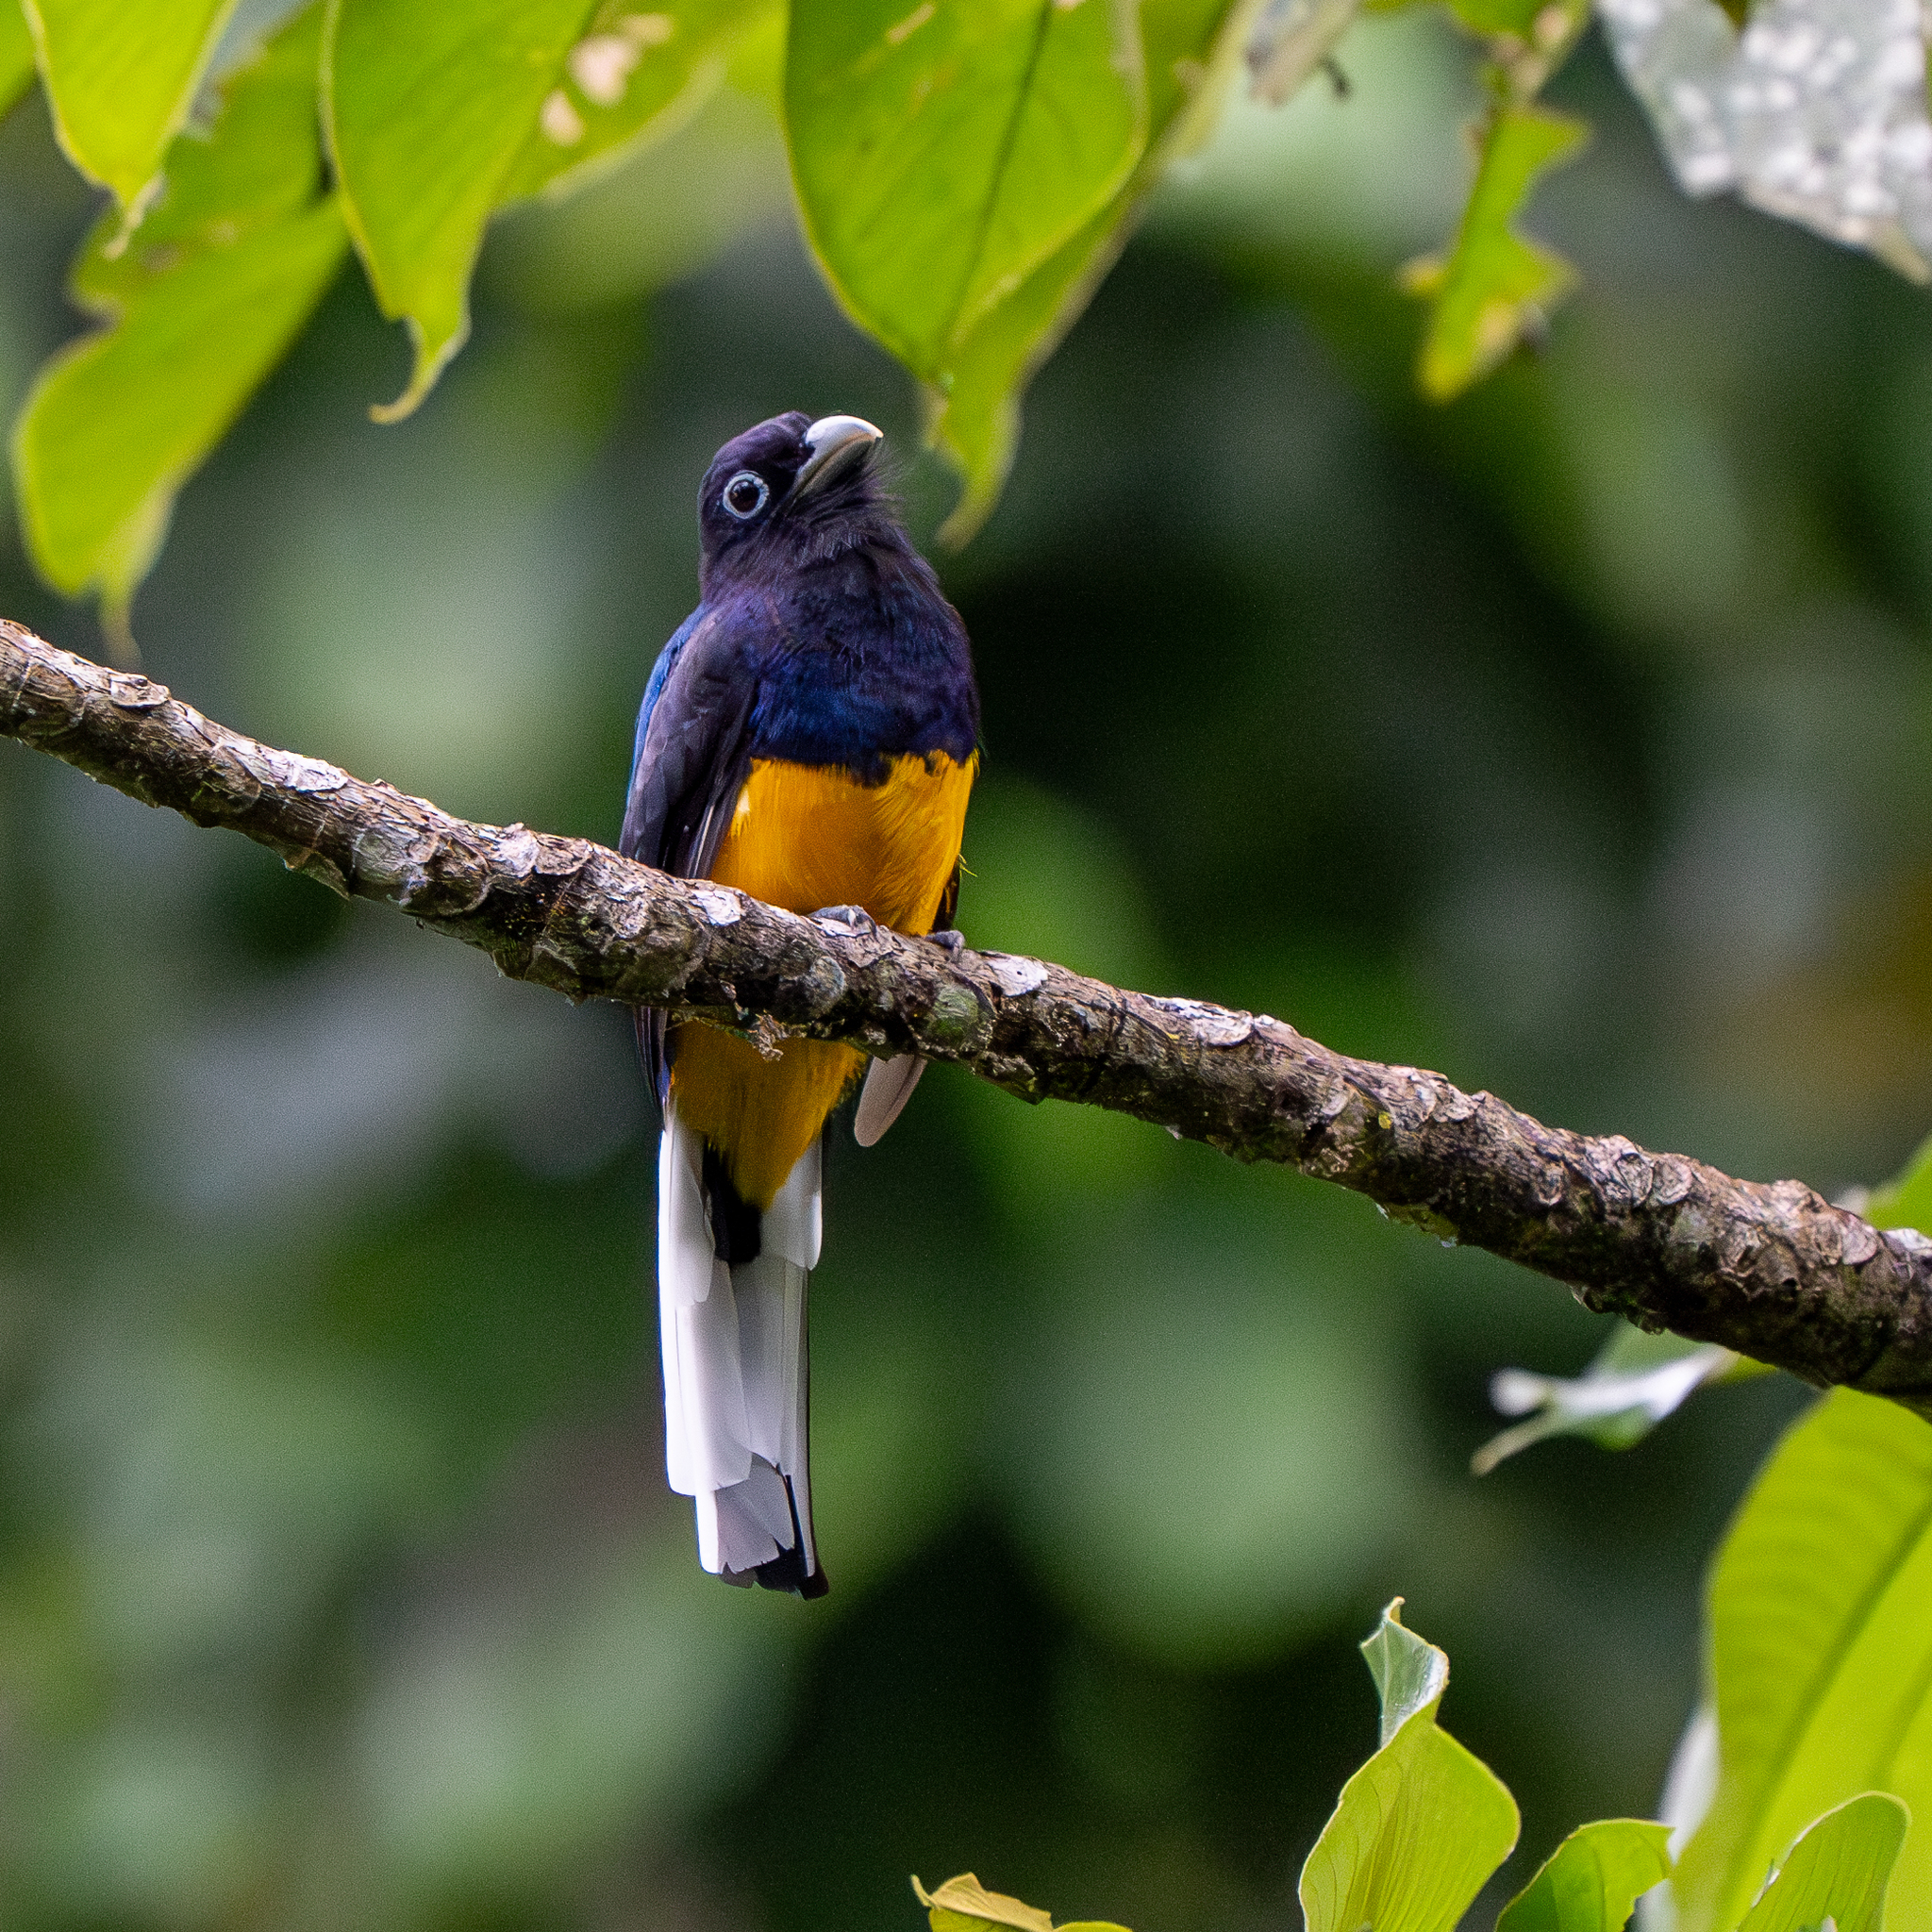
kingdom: Animalia
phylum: Chordata
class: Aves
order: Trogoniformes
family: Trogonidae
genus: Trogon
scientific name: Trogon chionurus
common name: White-tailed trogon
